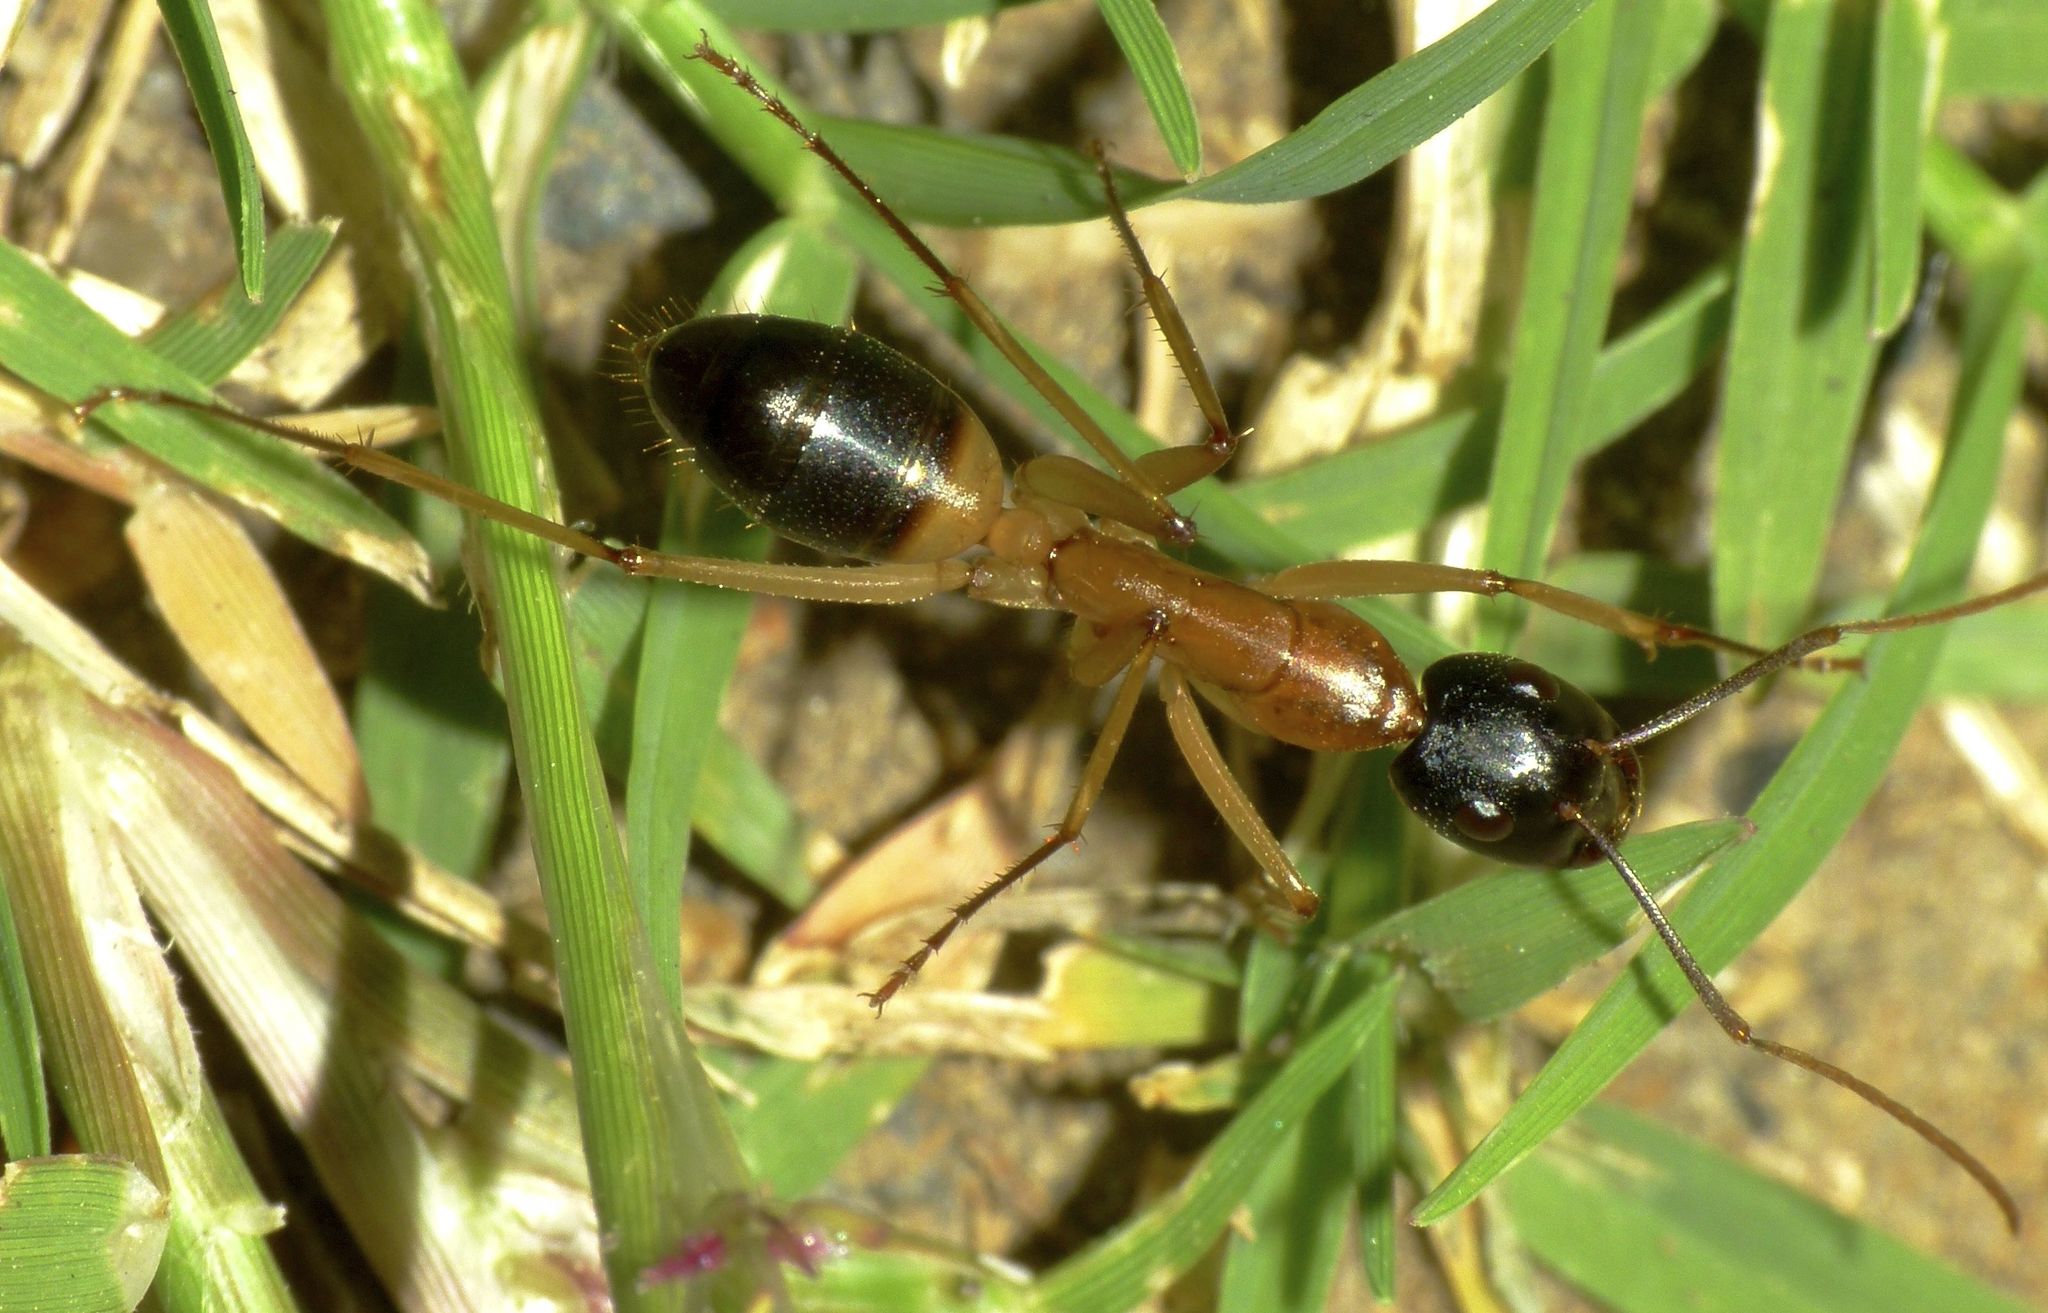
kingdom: Animalia
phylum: Arthropoda
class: Insecta
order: Hymenoptera
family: Formicidae
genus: Camponotus
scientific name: Camponotus consobrinus
